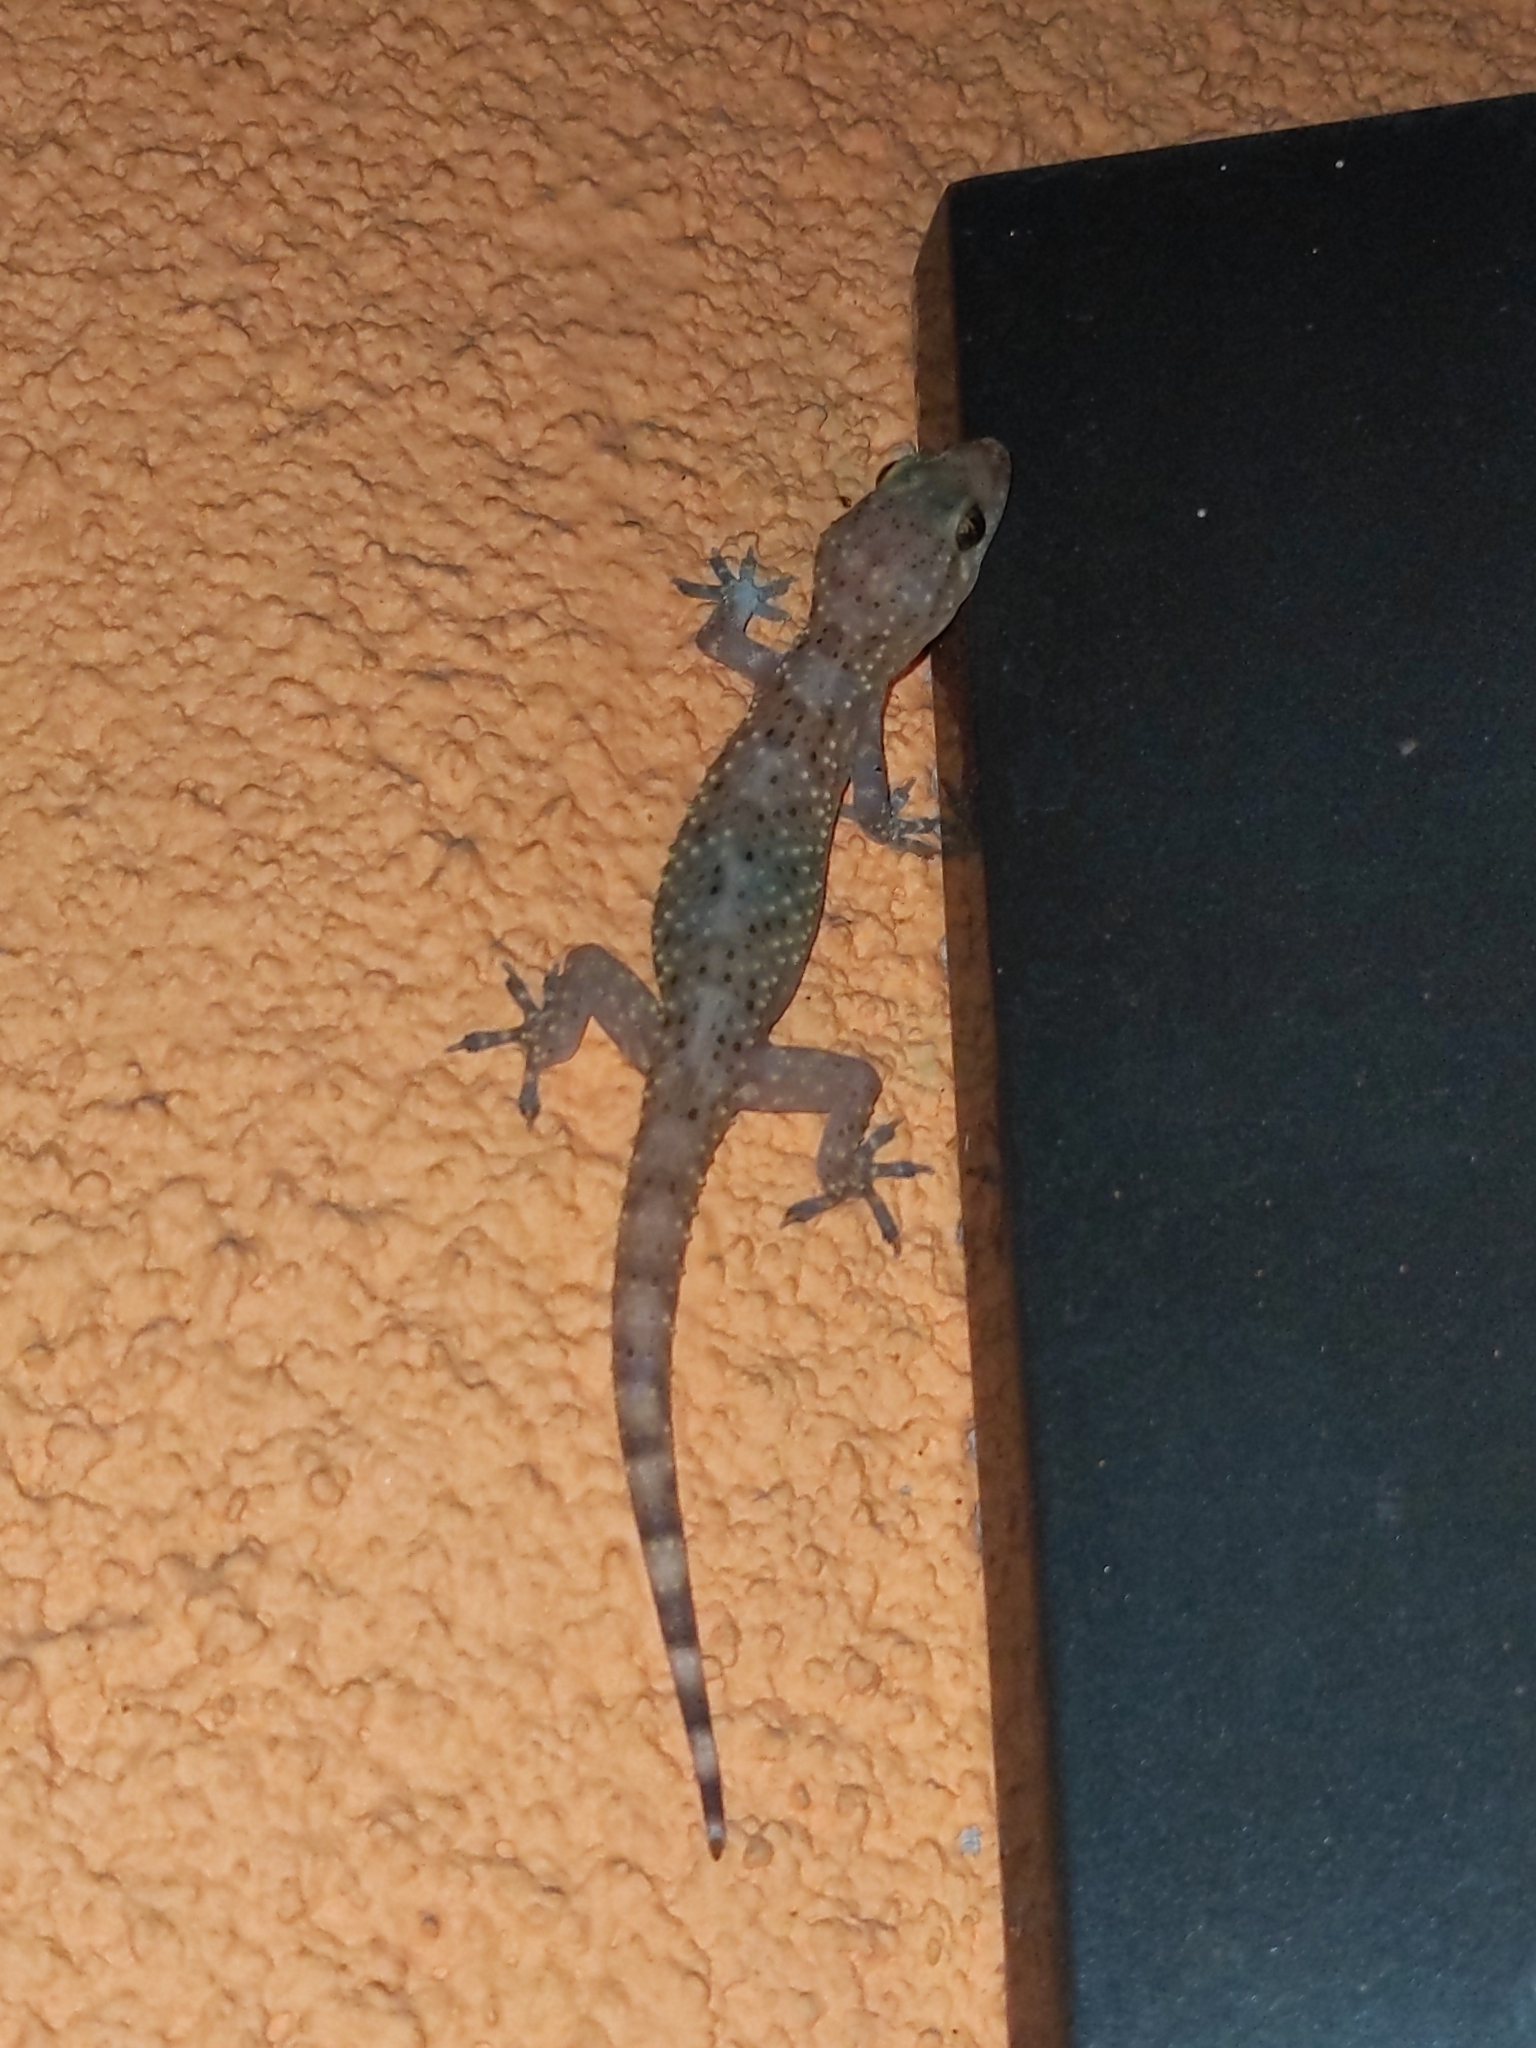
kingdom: Animalia
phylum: Chordata
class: Squamata
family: Gekkonidae
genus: Hemidactylus
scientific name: Hemidactylus turcicus
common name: Turkish gecko
